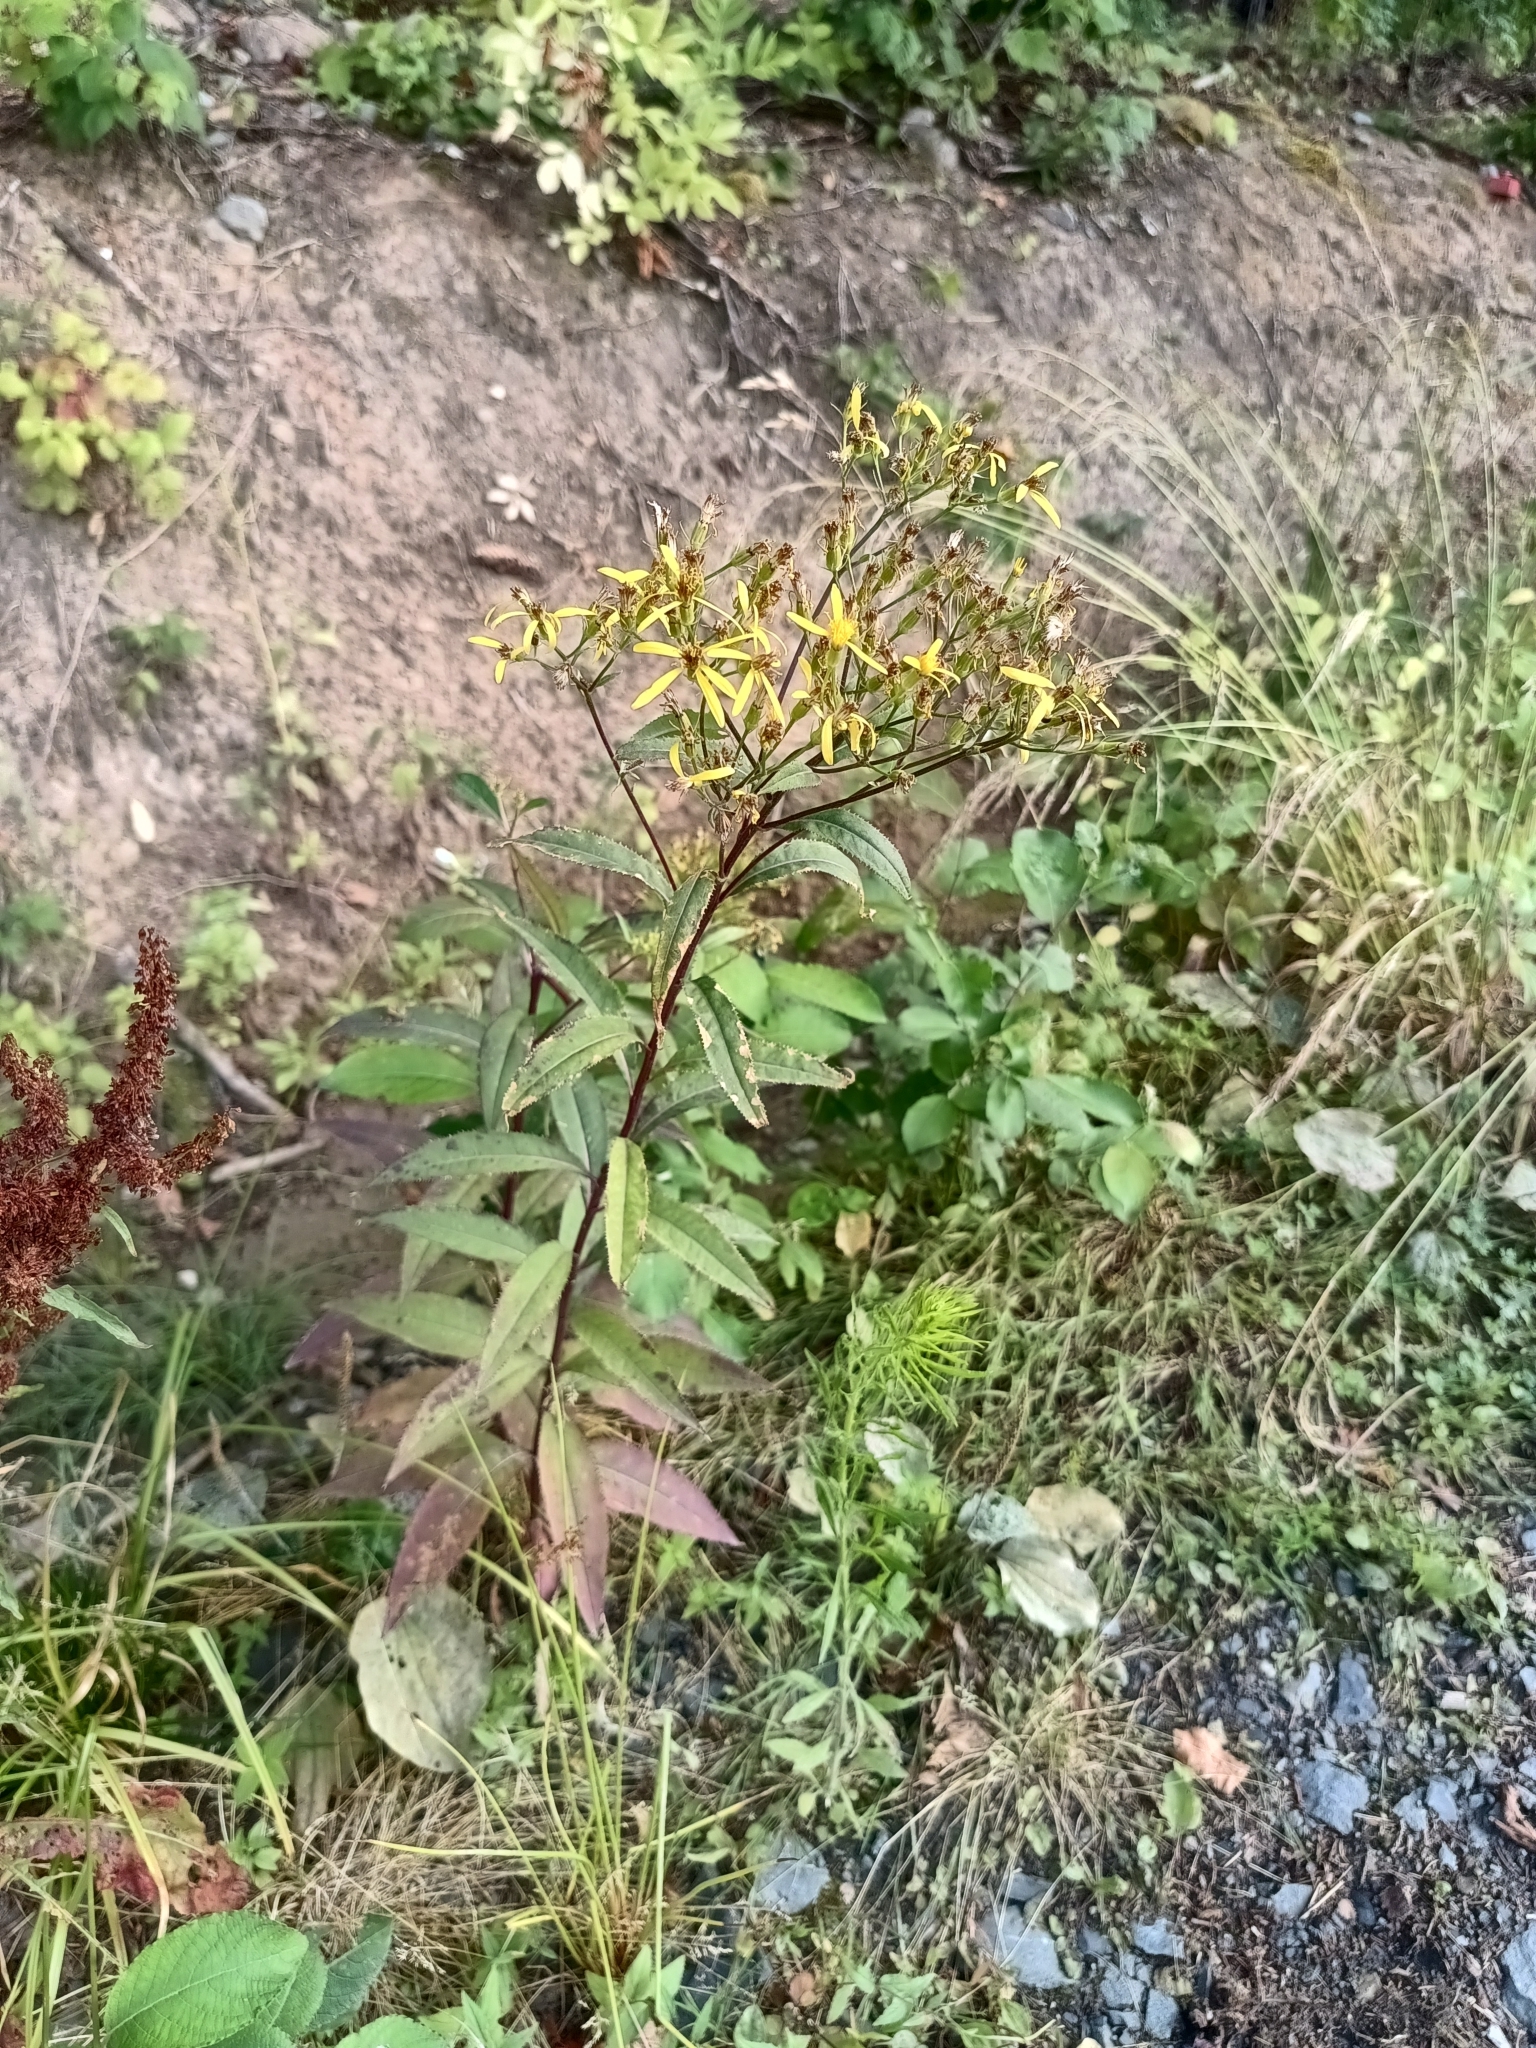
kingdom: Plantae
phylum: Tracheophyta
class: Magnoliopsida
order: Asterales
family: Asteraceae
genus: Senecio
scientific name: Senecio ovatus
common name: Wood ragwort
